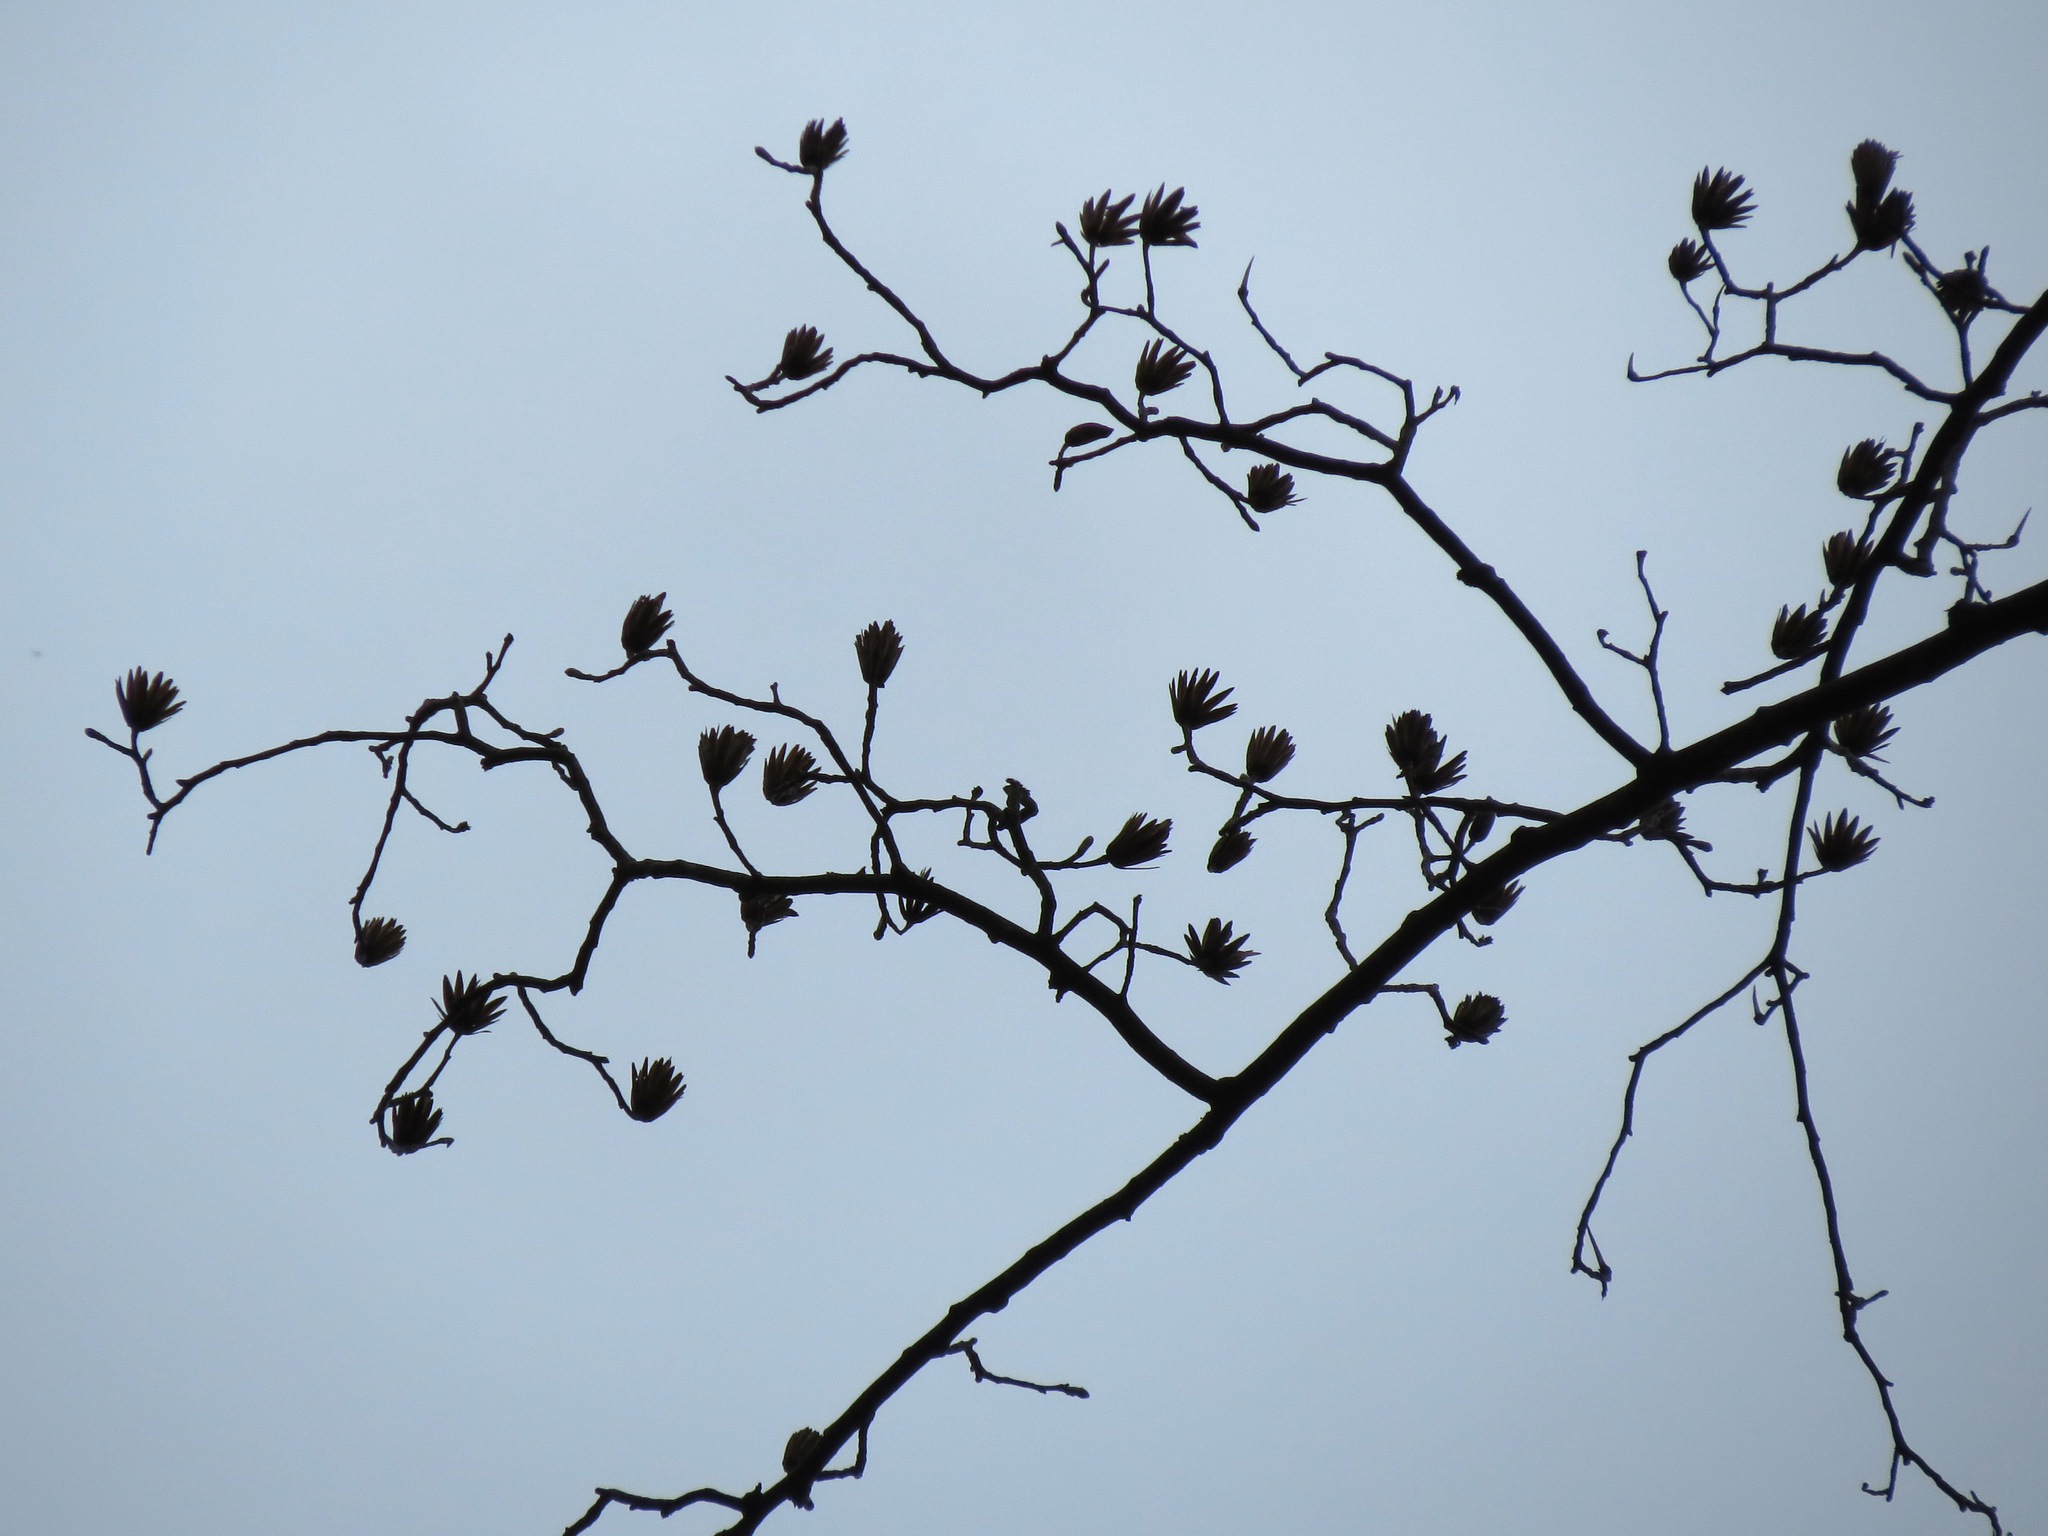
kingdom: Plantae
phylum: Tracheophyta
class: Magnoliopsida
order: Magnoliales
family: Magnoliaceae
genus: Liriodendron
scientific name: Liriodendron tulipifera
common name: Tulip tree
